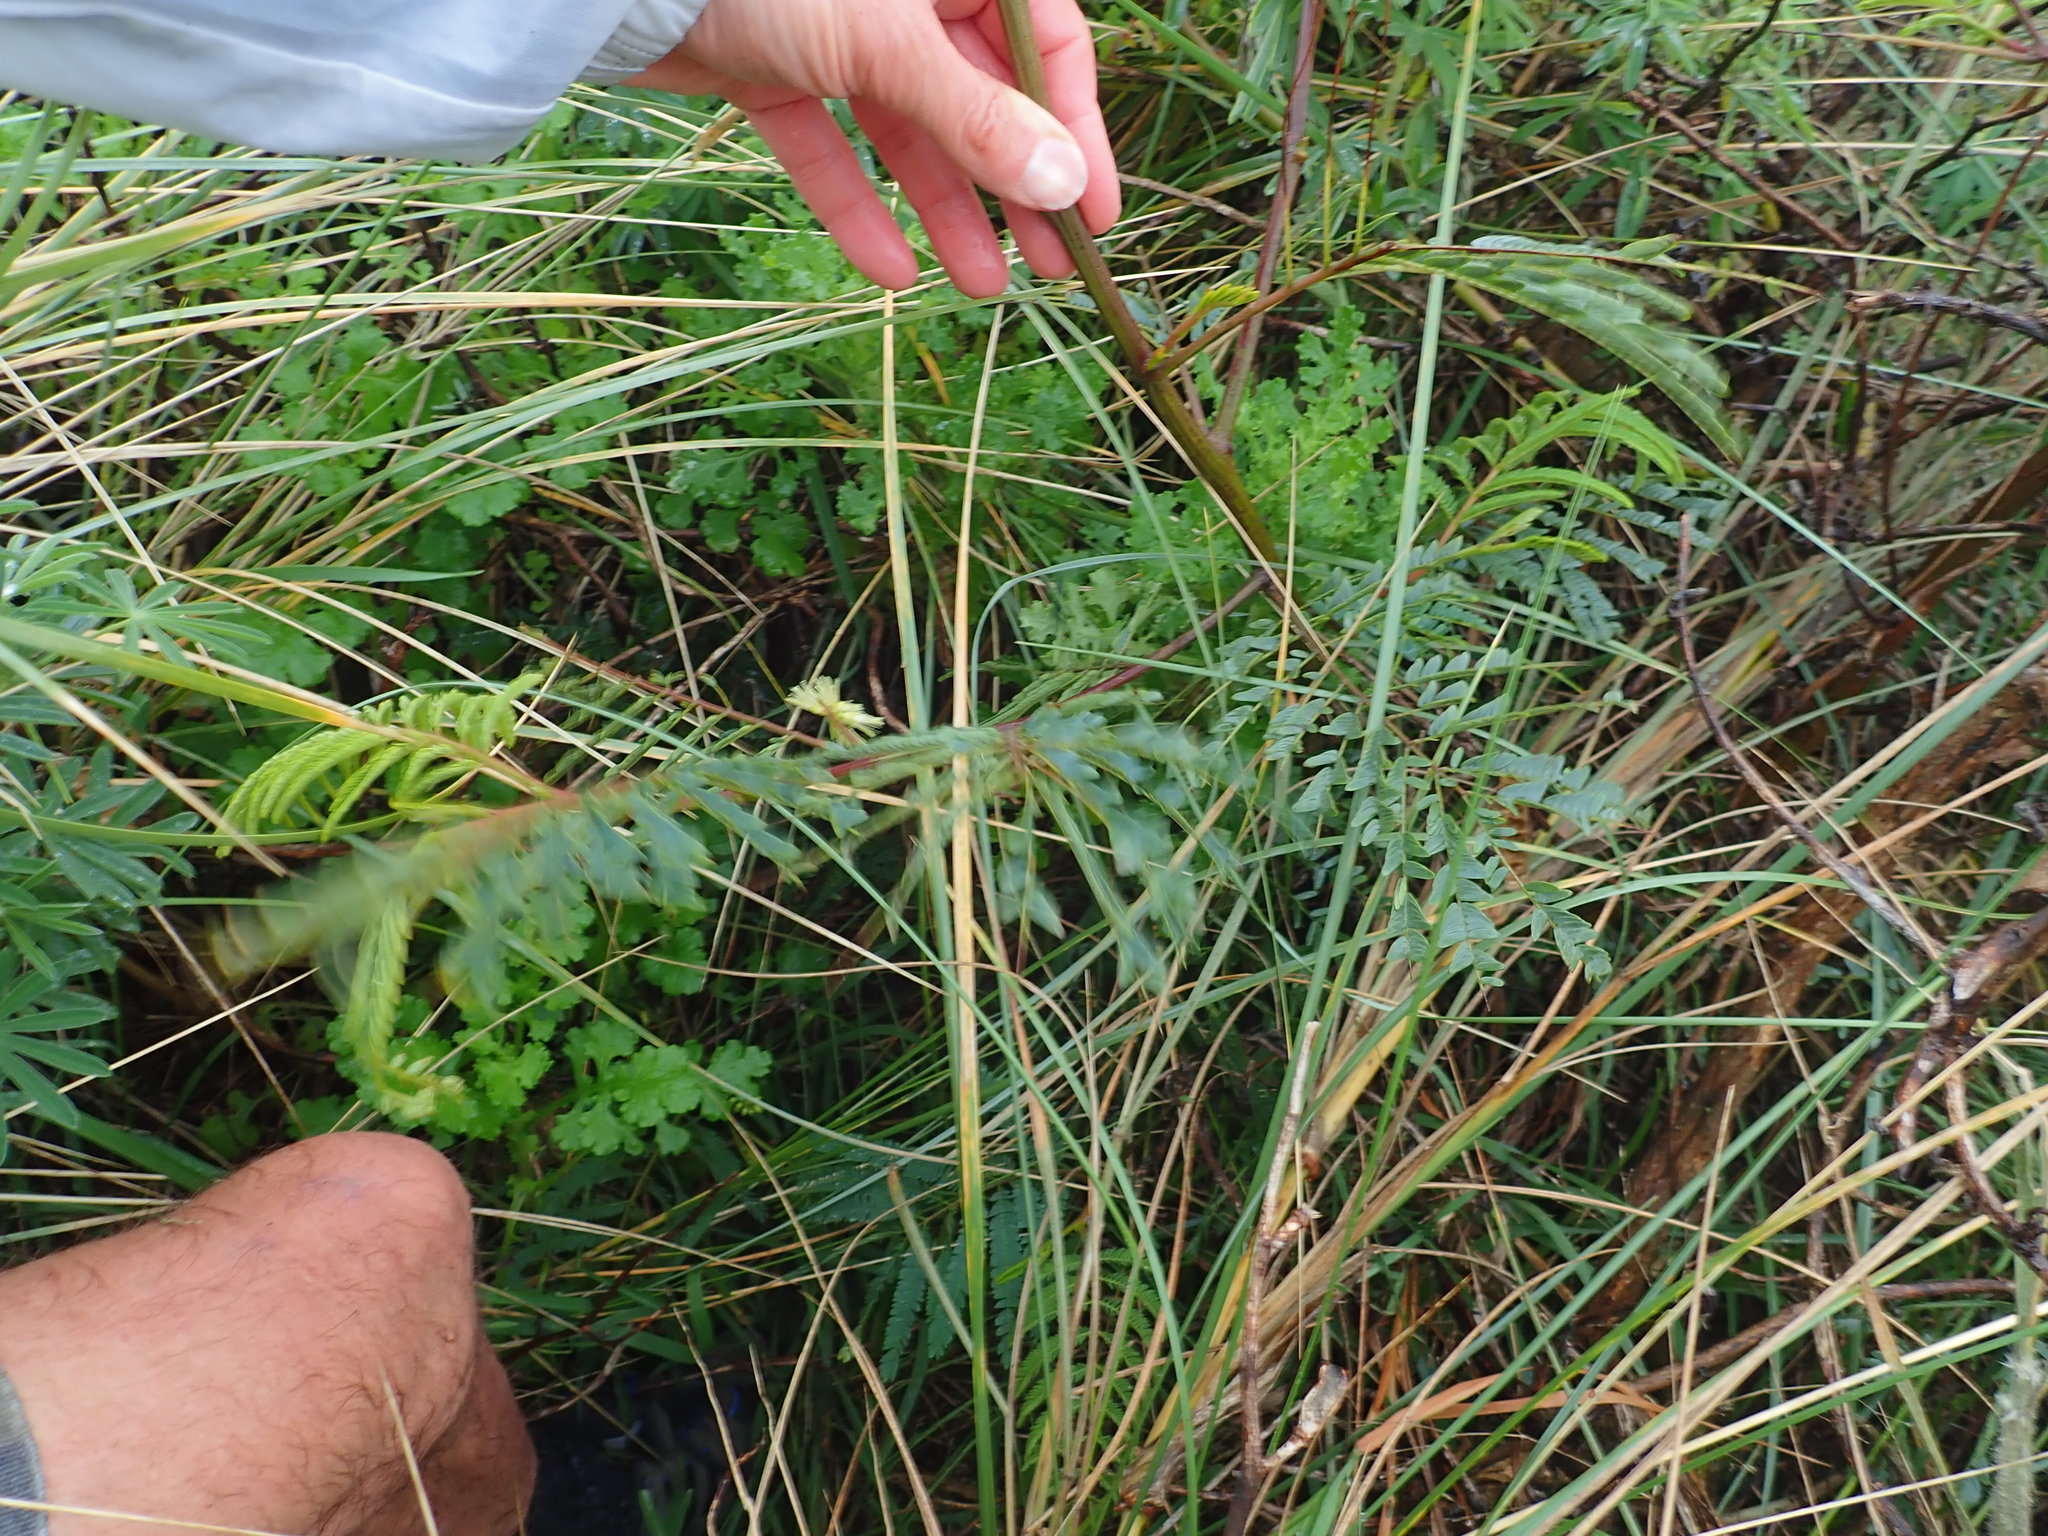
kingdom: Plantae
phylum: Tracheophyta
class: Magnoliopsida
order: Fabales
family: Fabaceae
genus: Paraserianthes
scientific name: Paraserianthes lophantha
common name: Plume albizia
